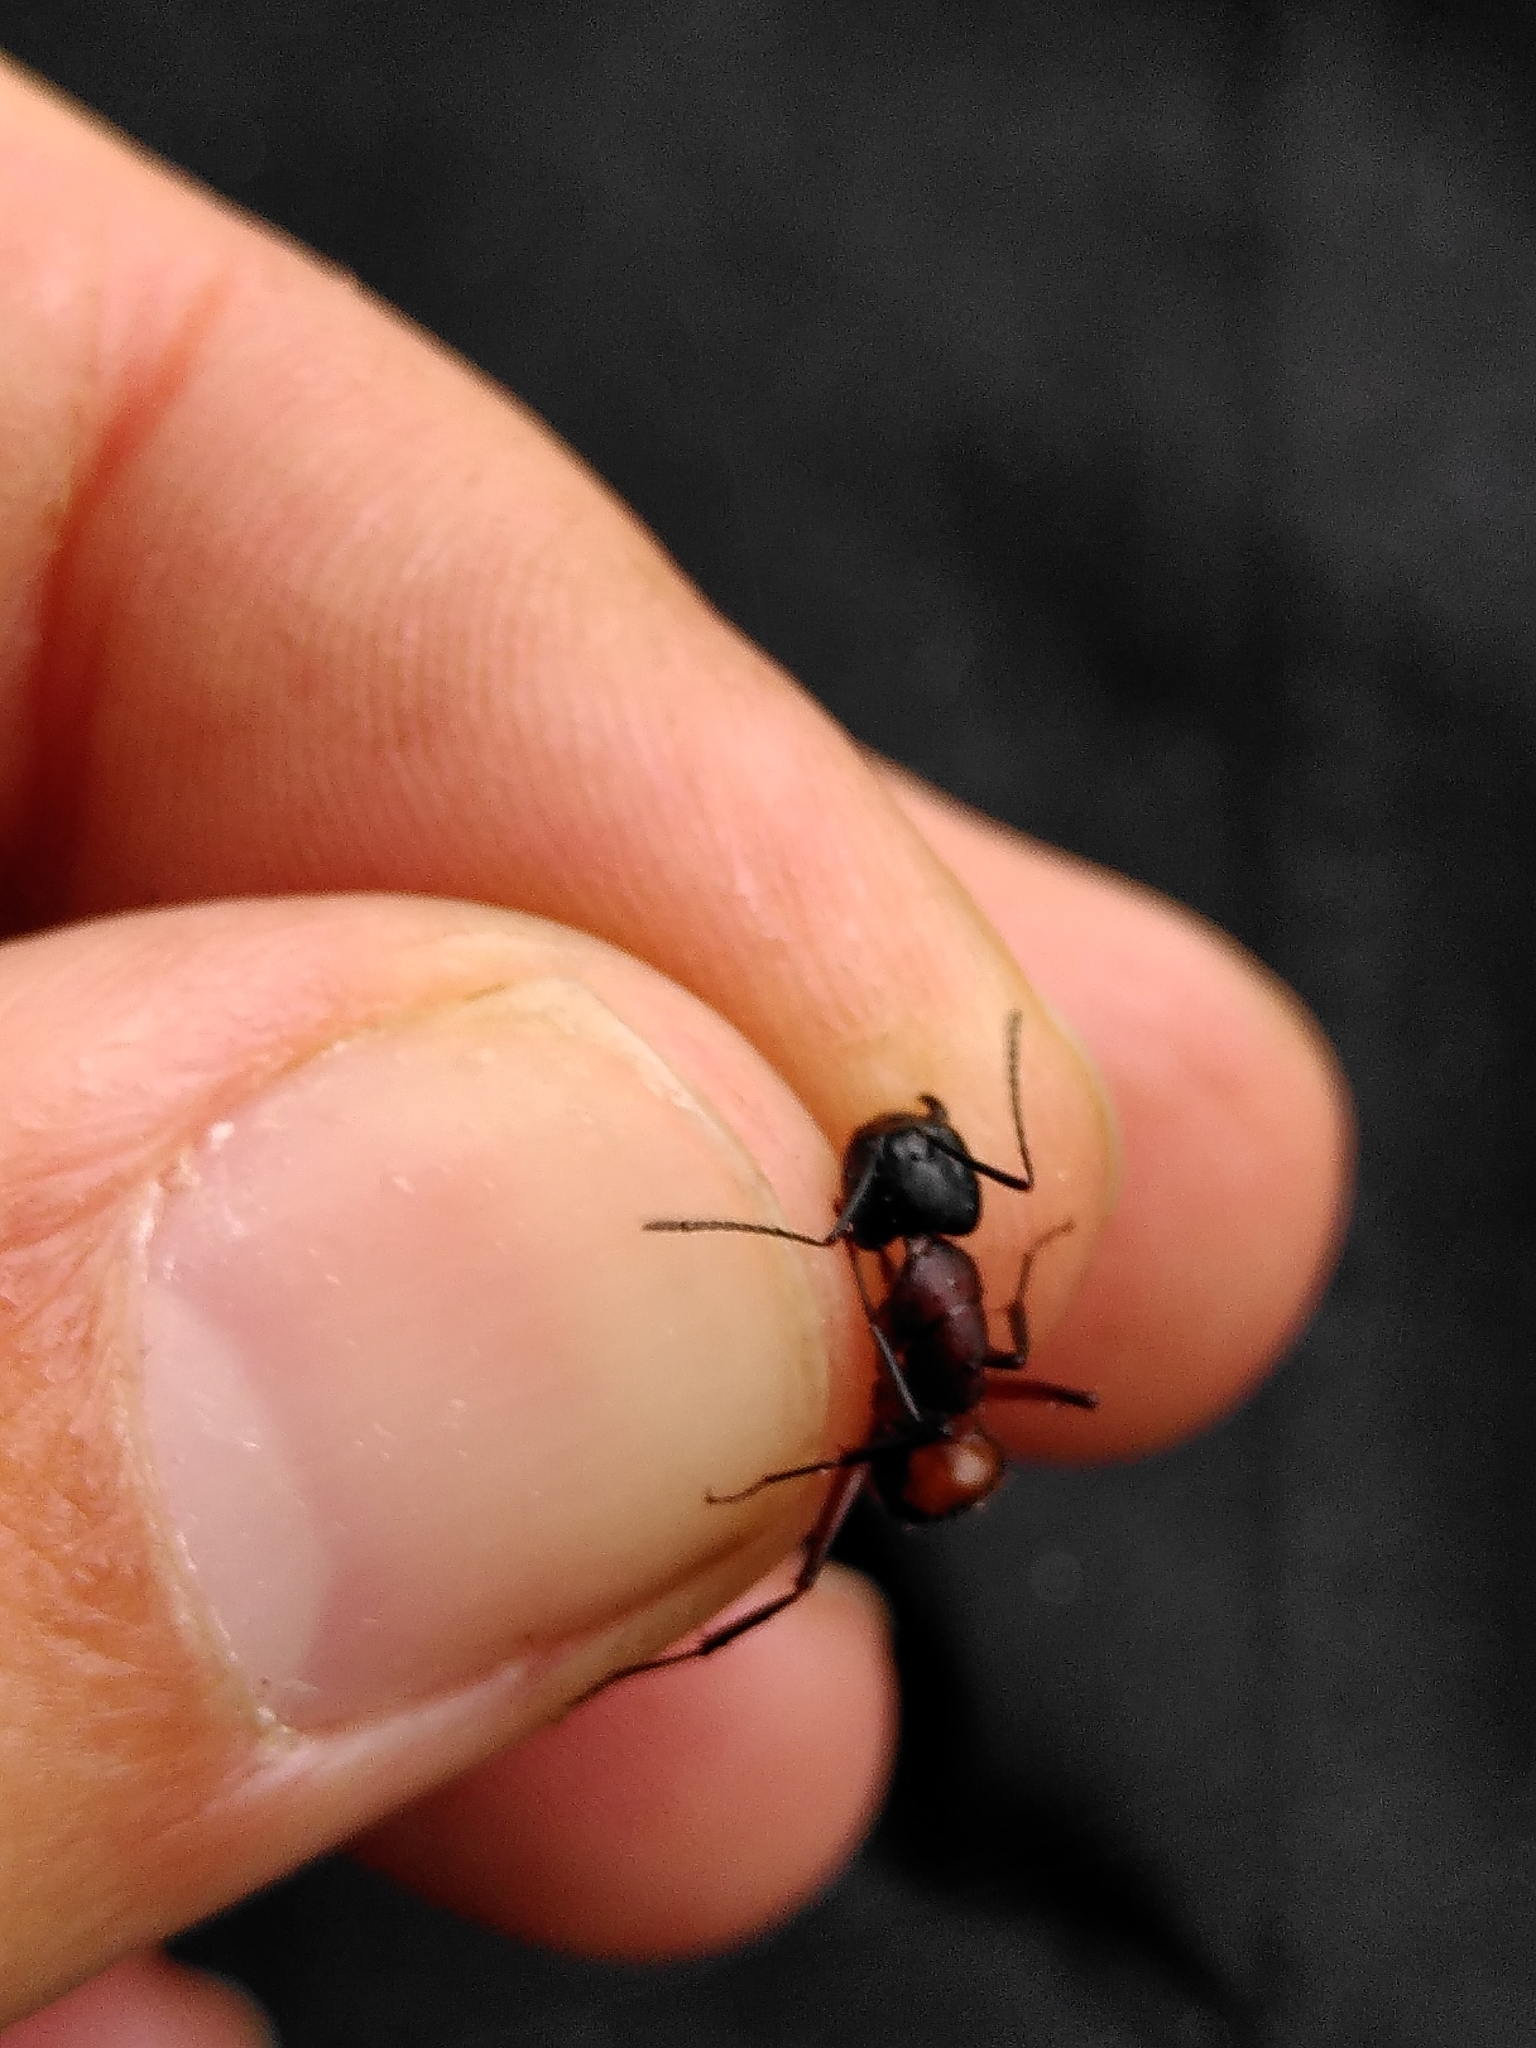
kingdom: Animalia
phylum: Arthropoda
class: Insecta
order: Hymenoptera
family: Formicidae
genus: Camponotus
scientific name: Camponotus ligniperdus
